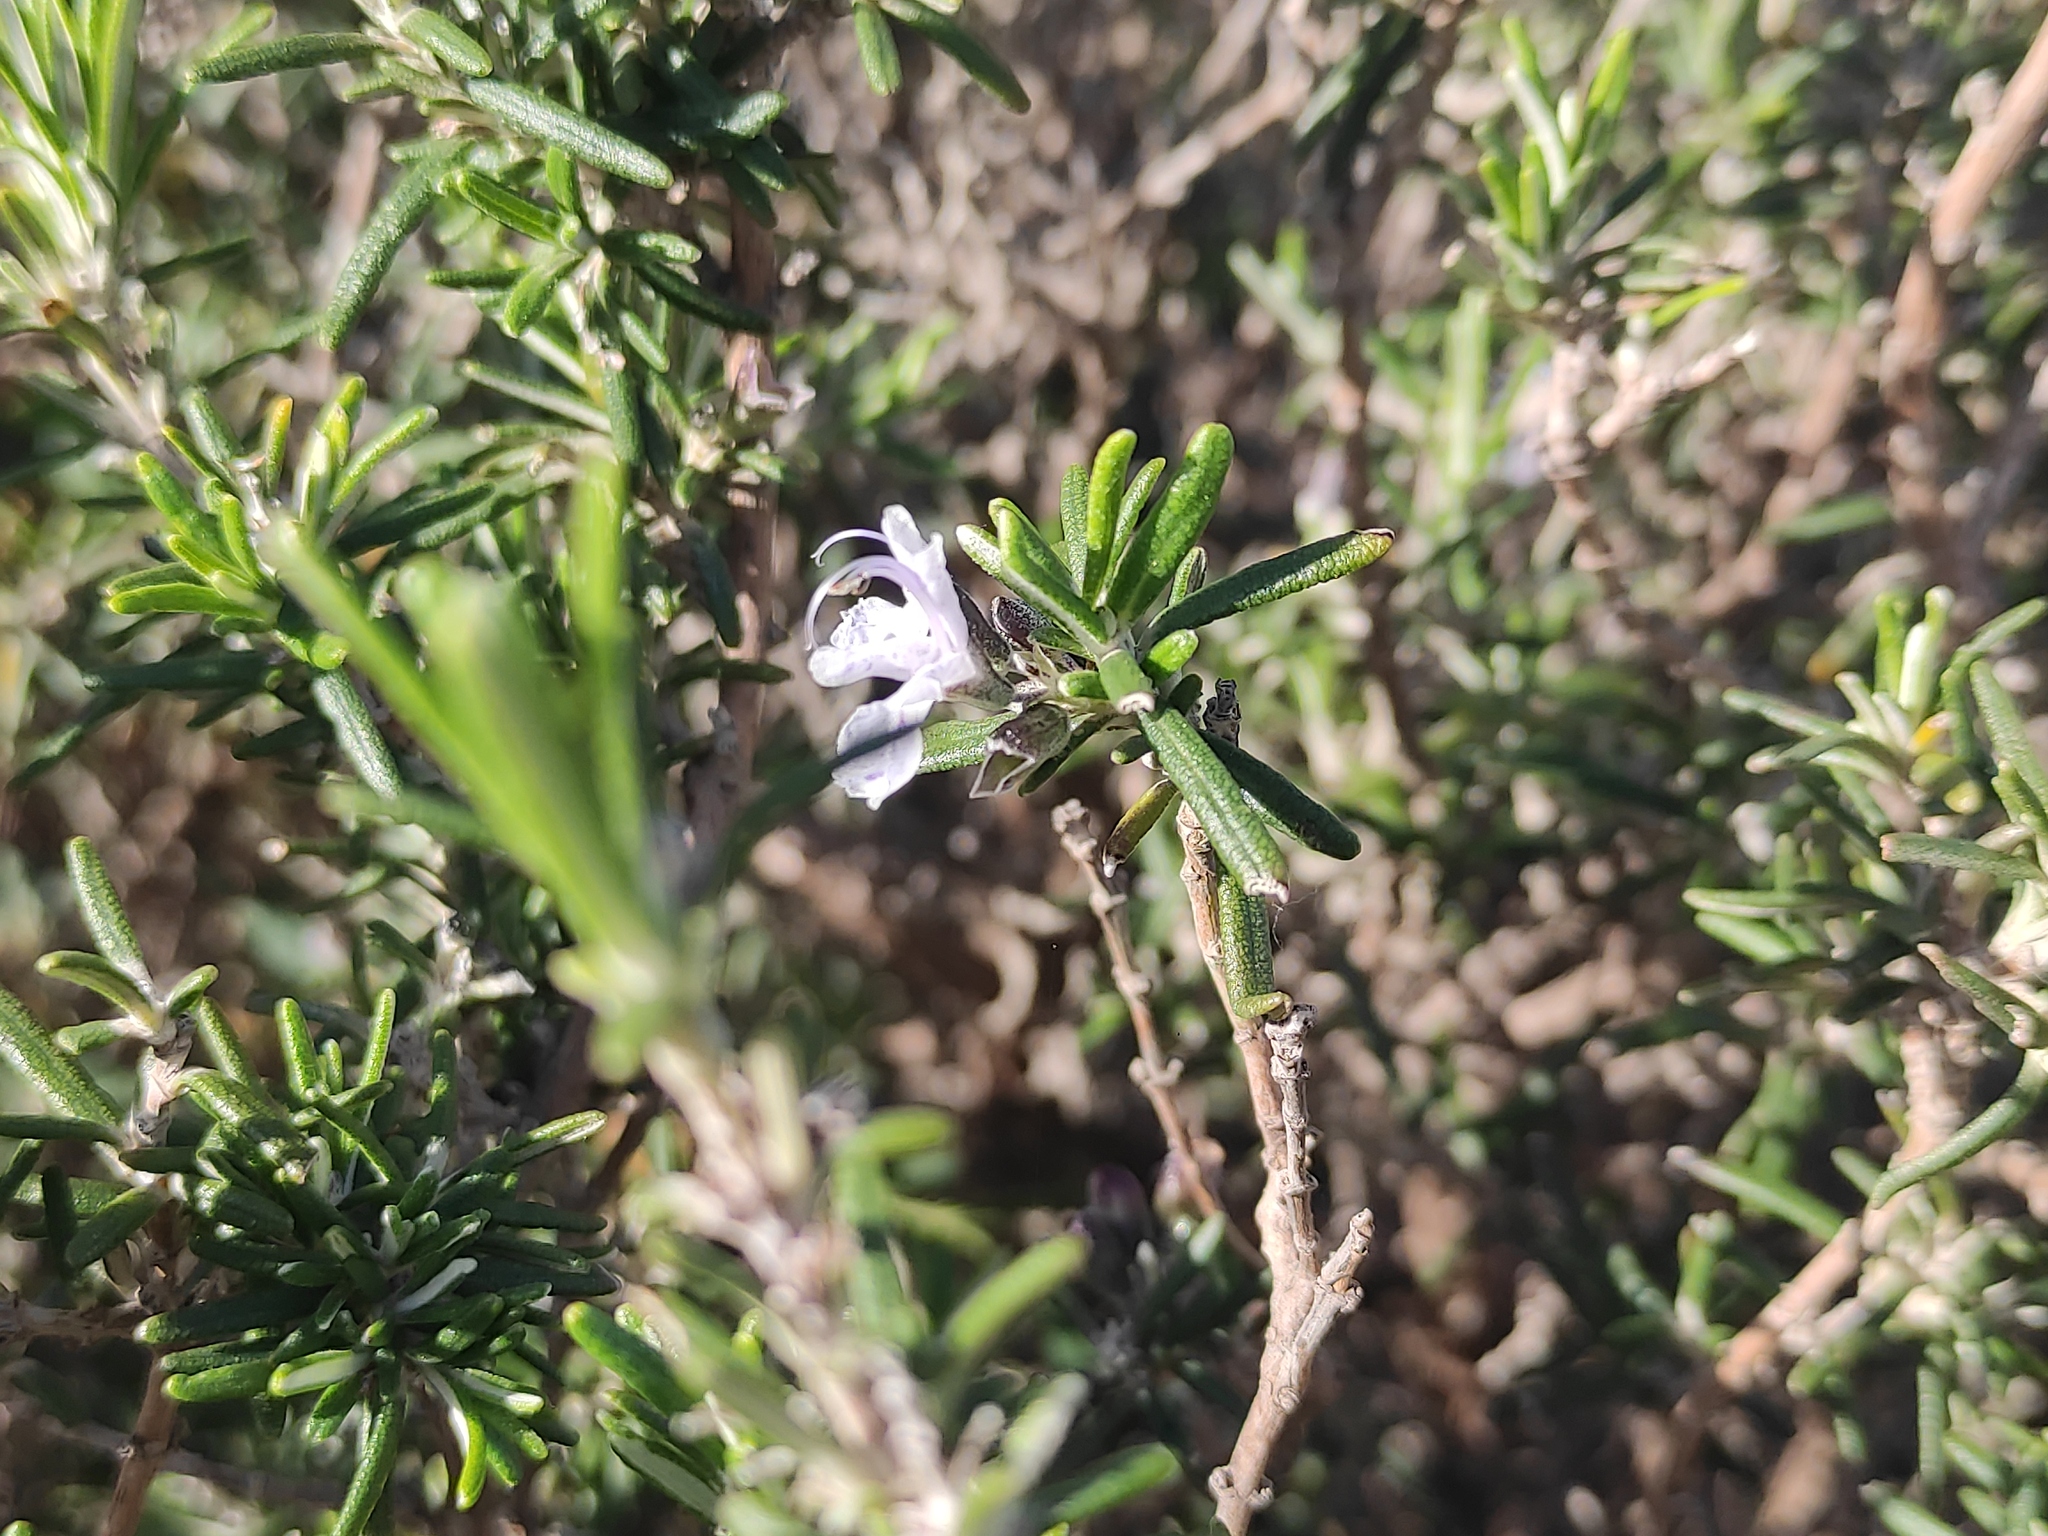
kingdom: Plantae
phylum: Tracheophyta
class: Magnoliopsida
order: Lamiales
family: Lamiaceae
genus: Salvia
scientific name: Salvia rosmarinus
